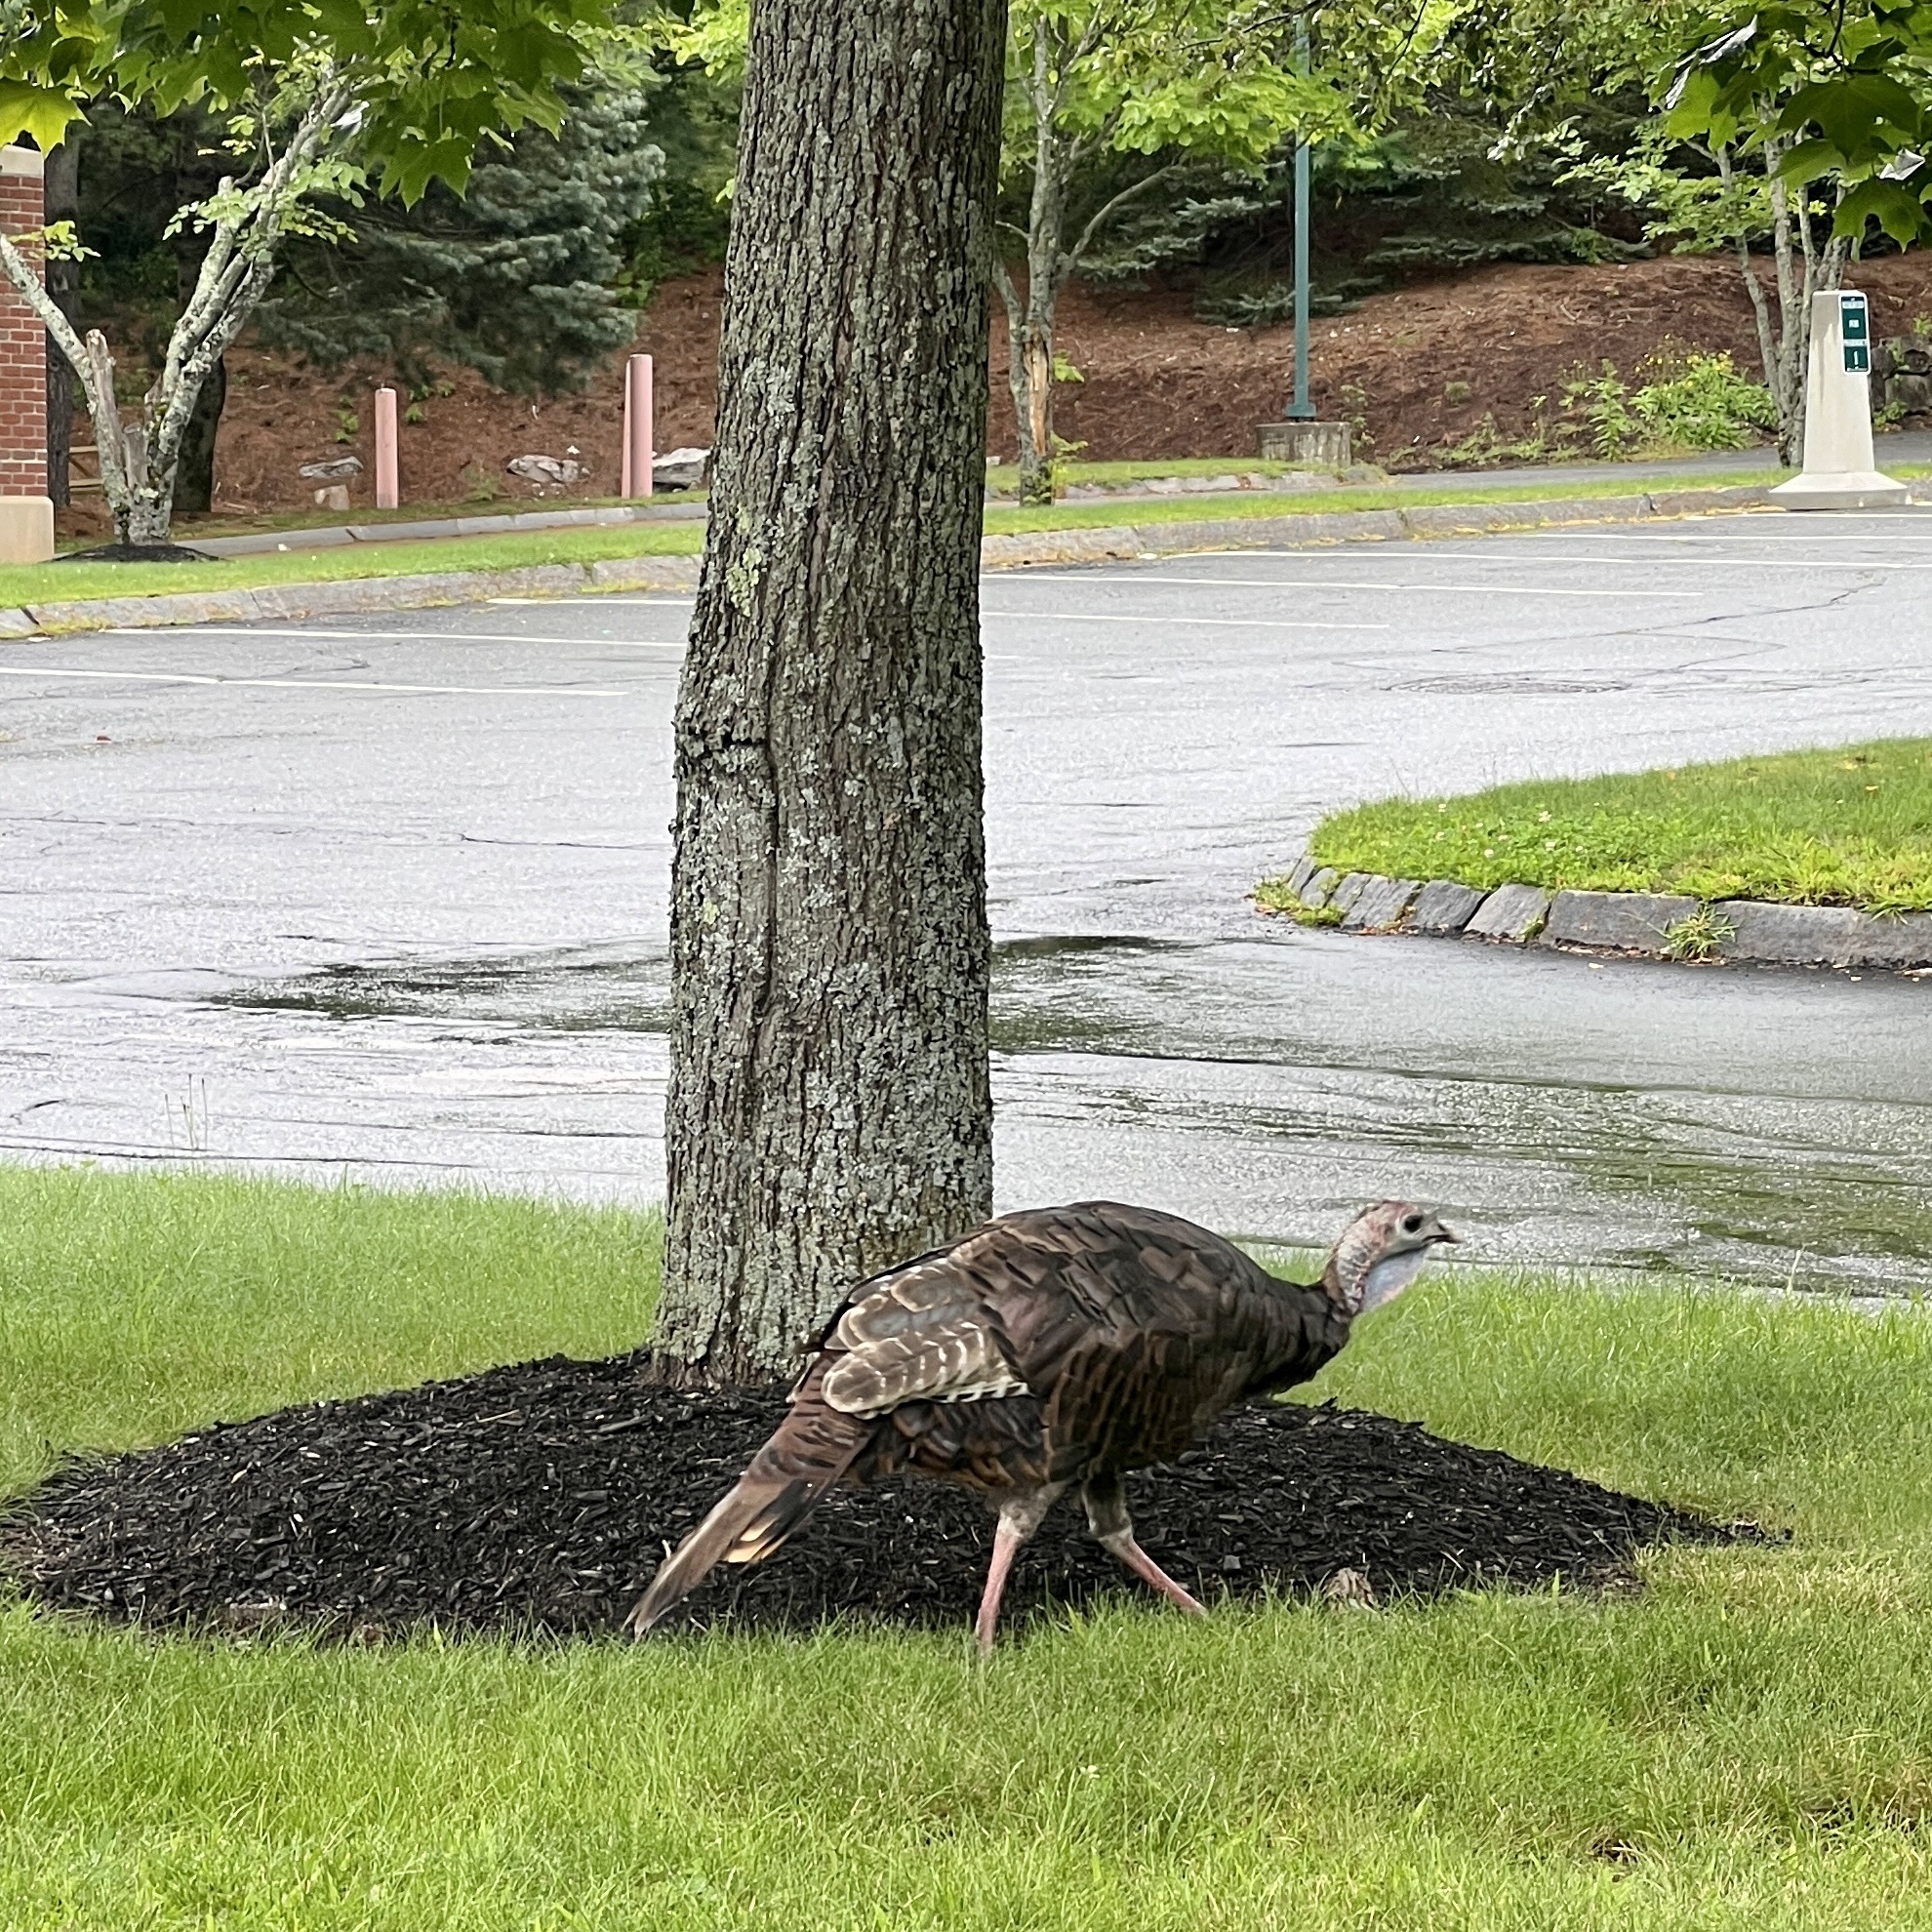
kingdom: Animalia
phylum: Chordata
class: Aves
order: Galliformes
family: Phasianidae
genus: Meleagris
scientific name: Meleagris gallopavo
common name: Wild turkey
